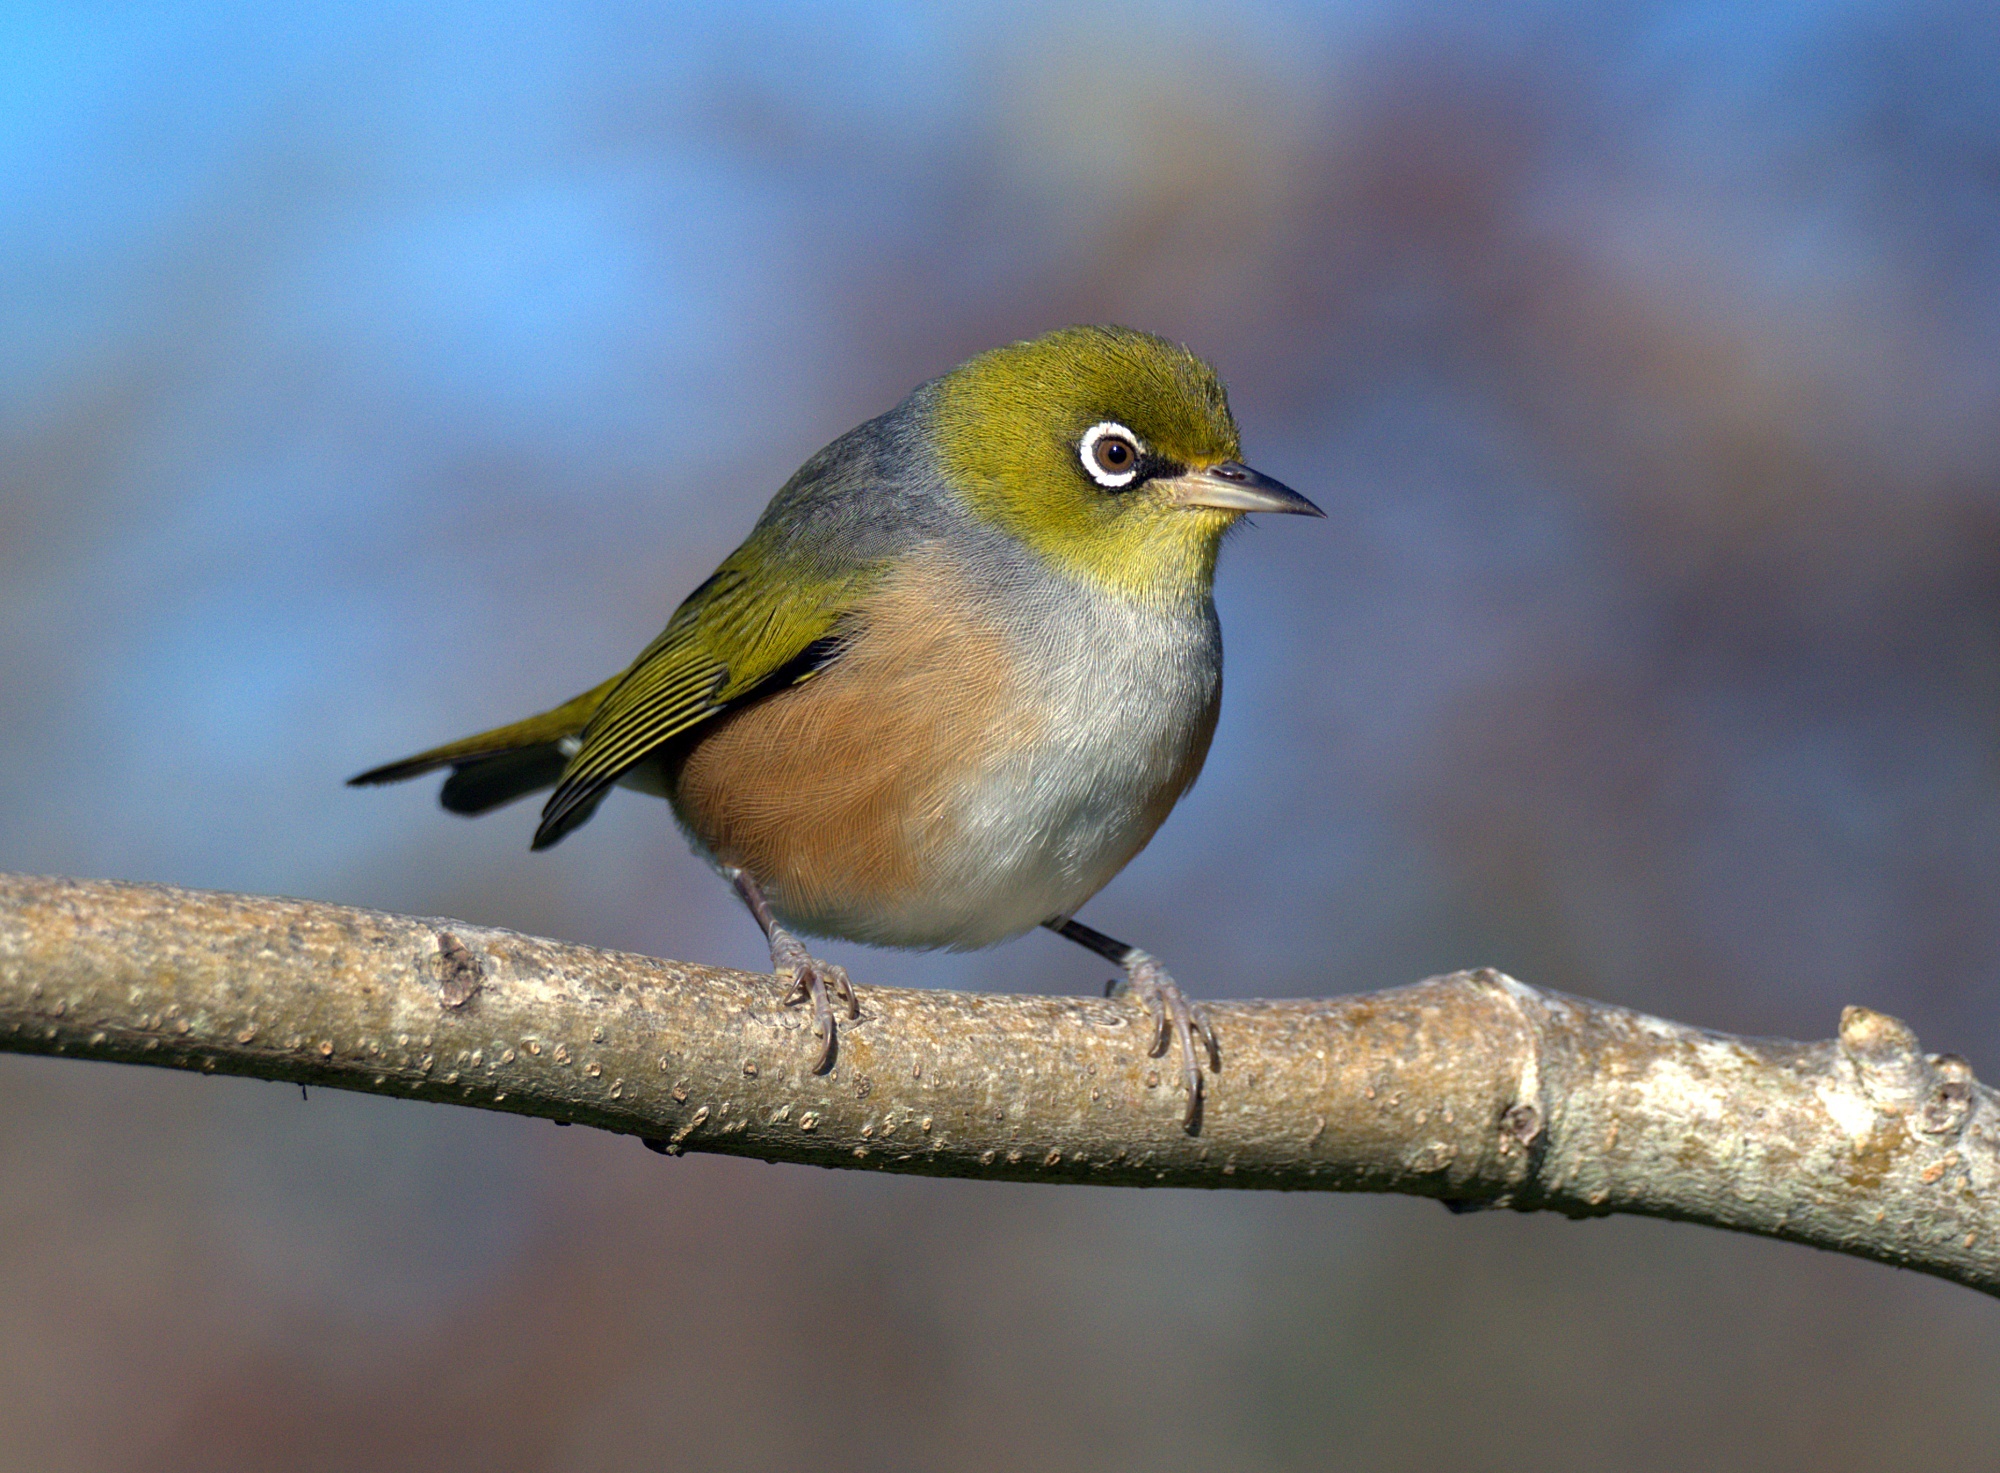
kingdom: Animalia
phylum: Chordata
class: Aves
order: Passeriformes
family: Zosteropidae
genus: Zosterops
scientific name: Zosterops lateralis
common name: Silvereye
